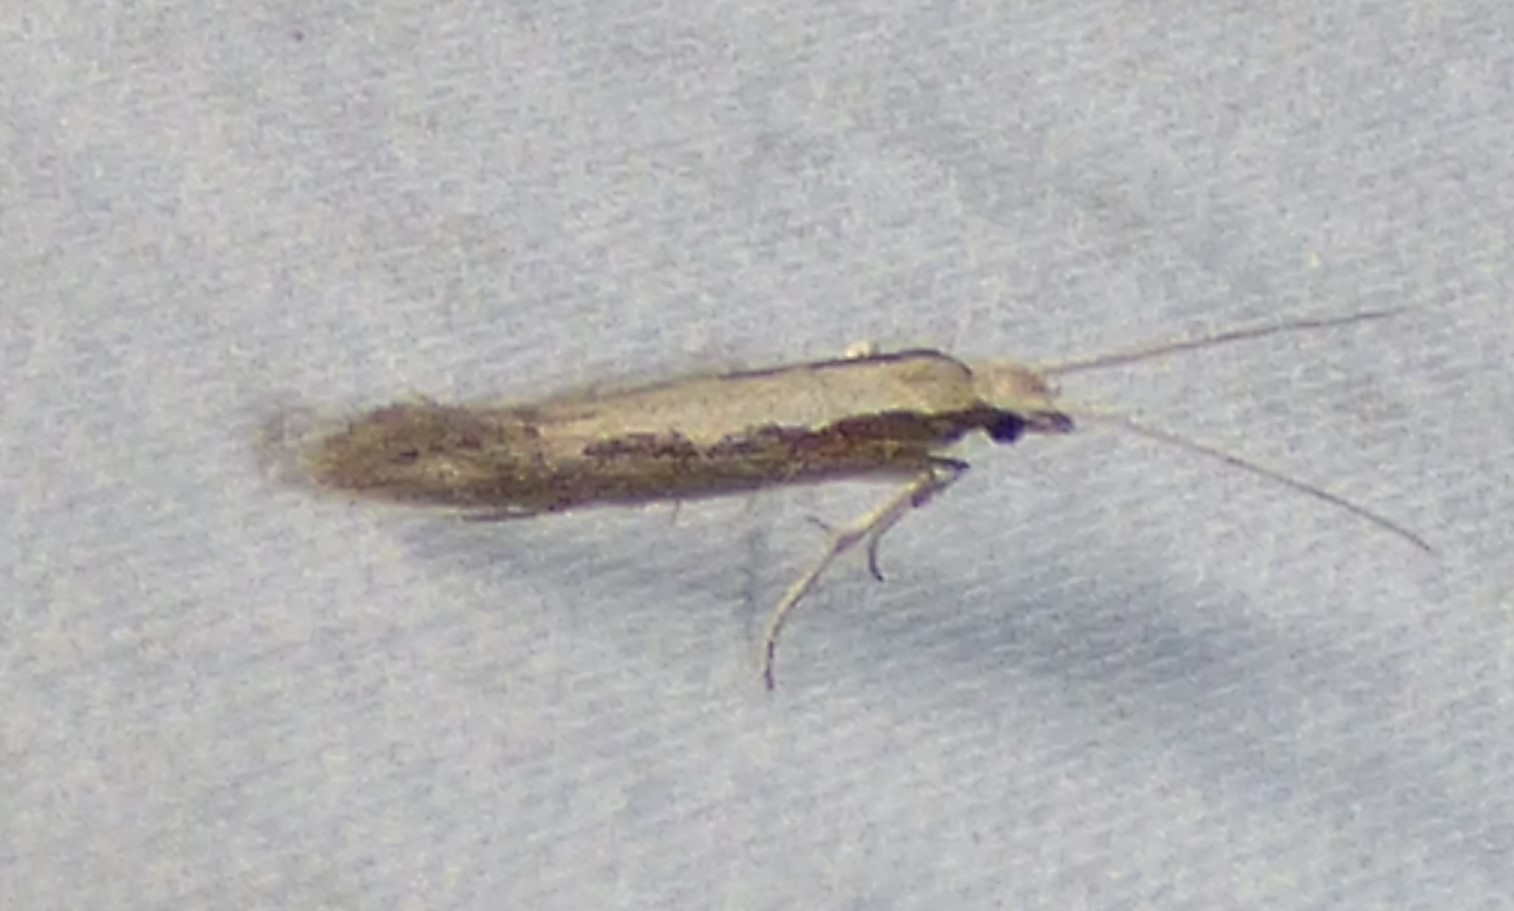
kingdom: Animalia
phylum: Arthropoda
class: Insecta
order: Lepidoptera
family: Plutellidae
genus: Plutella
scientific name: Plutella xylostella
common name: Diamond-back moth
